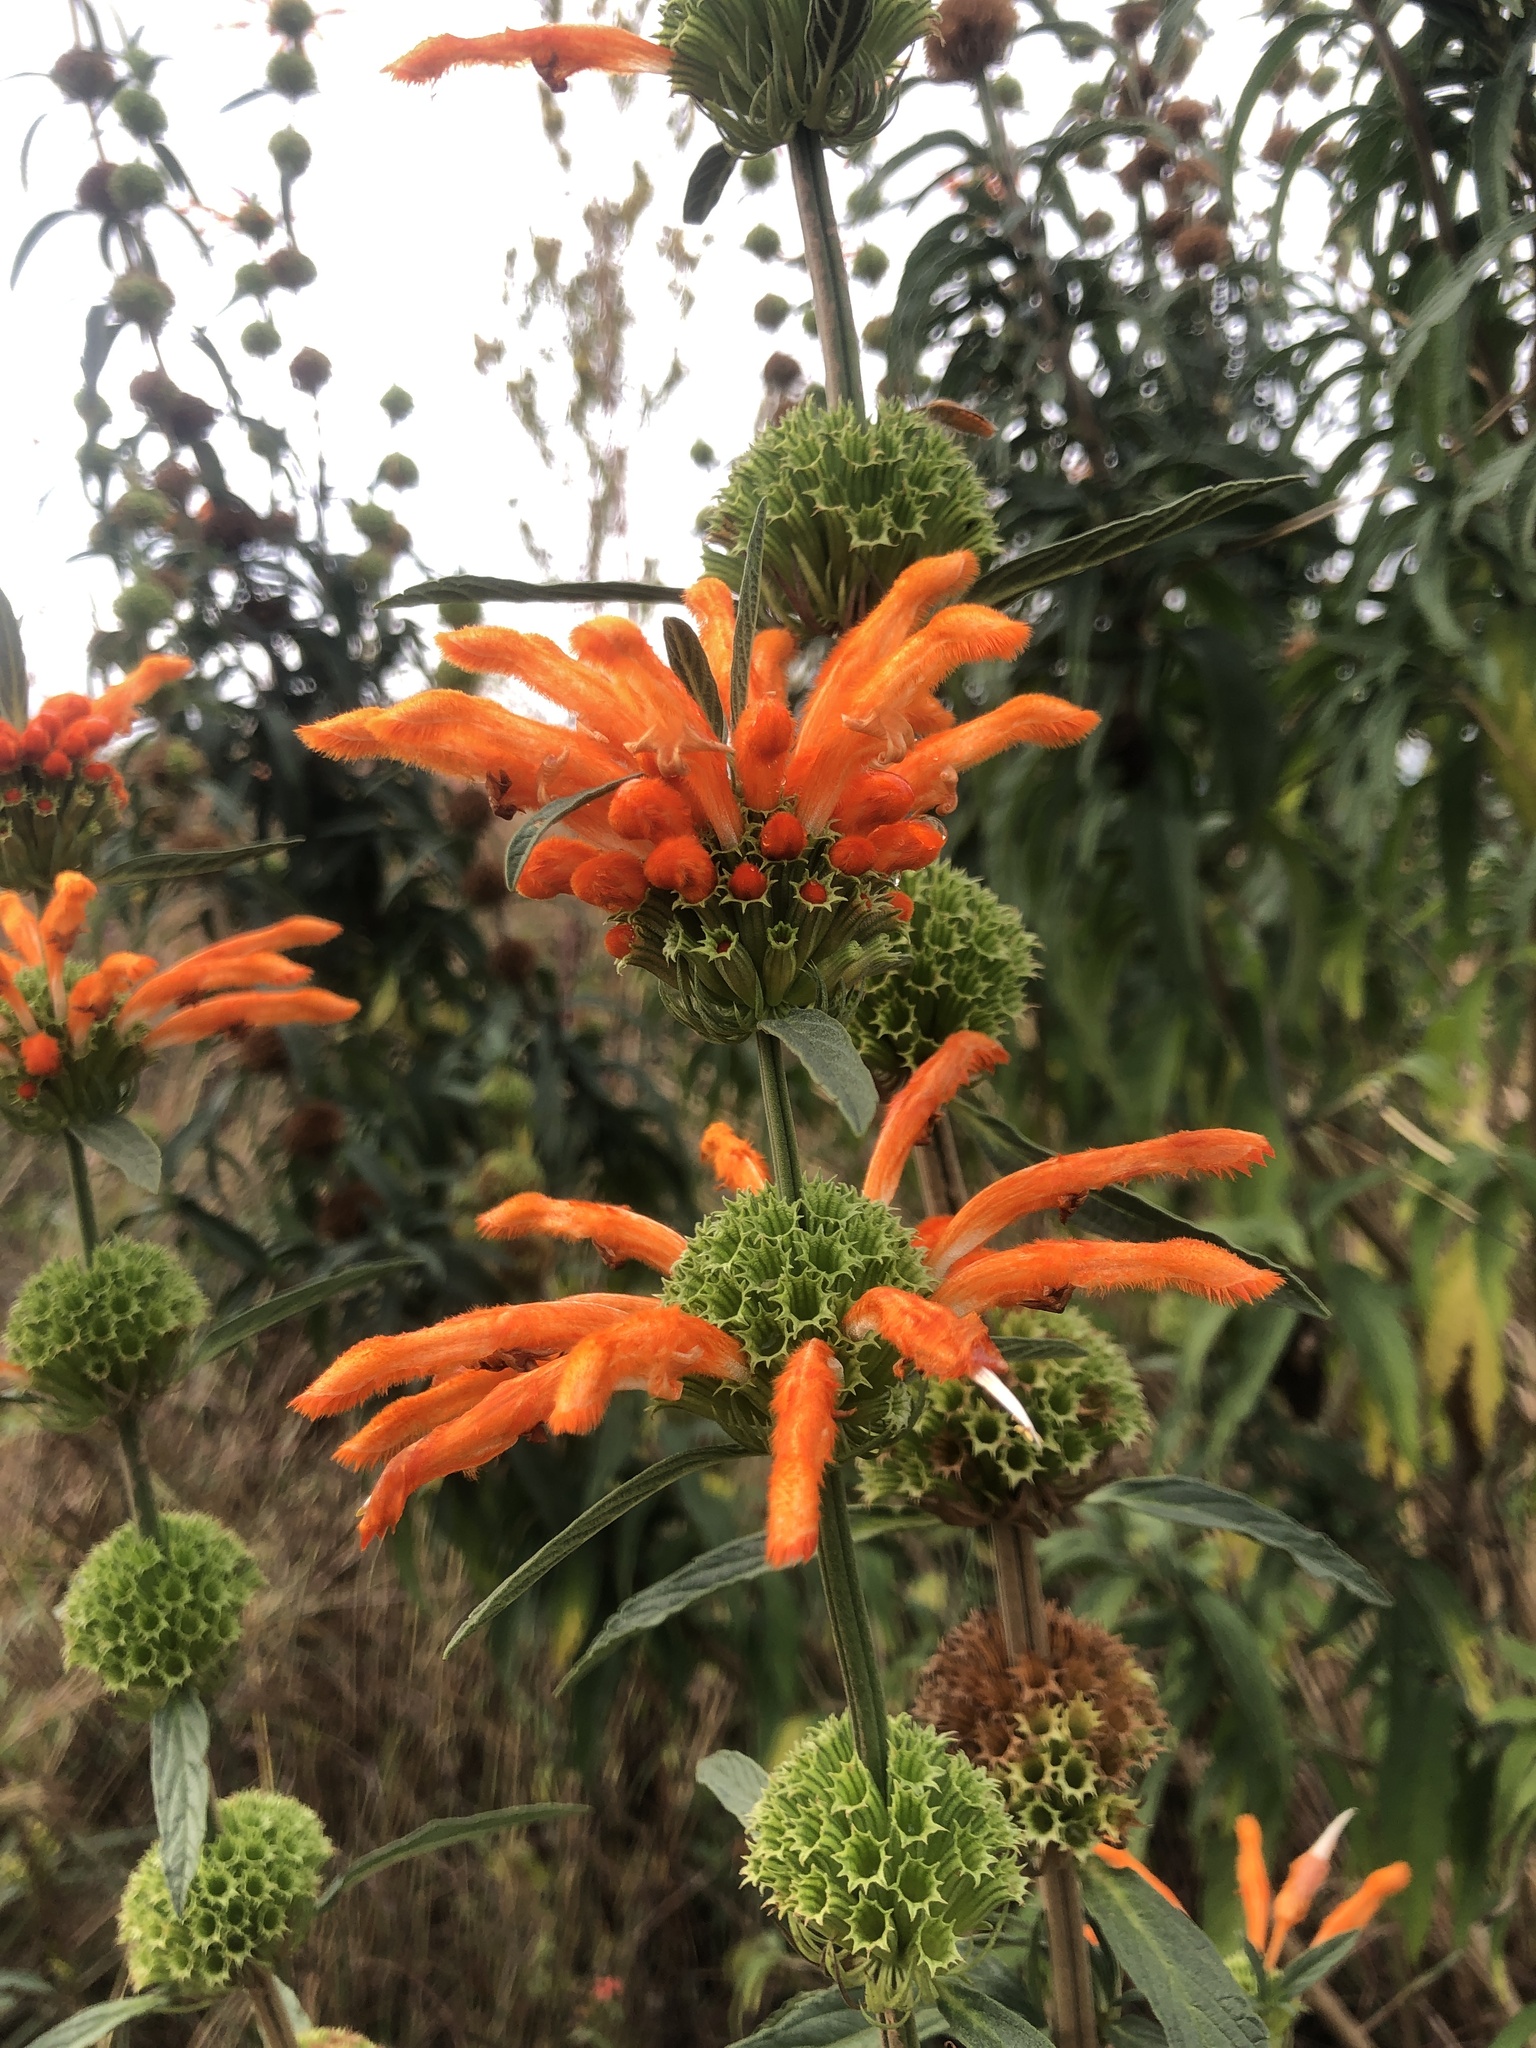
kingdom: Plantae
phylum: Tracheophyta
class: Magnoliopsida
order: Lamiales
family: Lamiaceae
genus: Leonotis
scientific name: Leonotis leonurus
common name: Lion's ear
